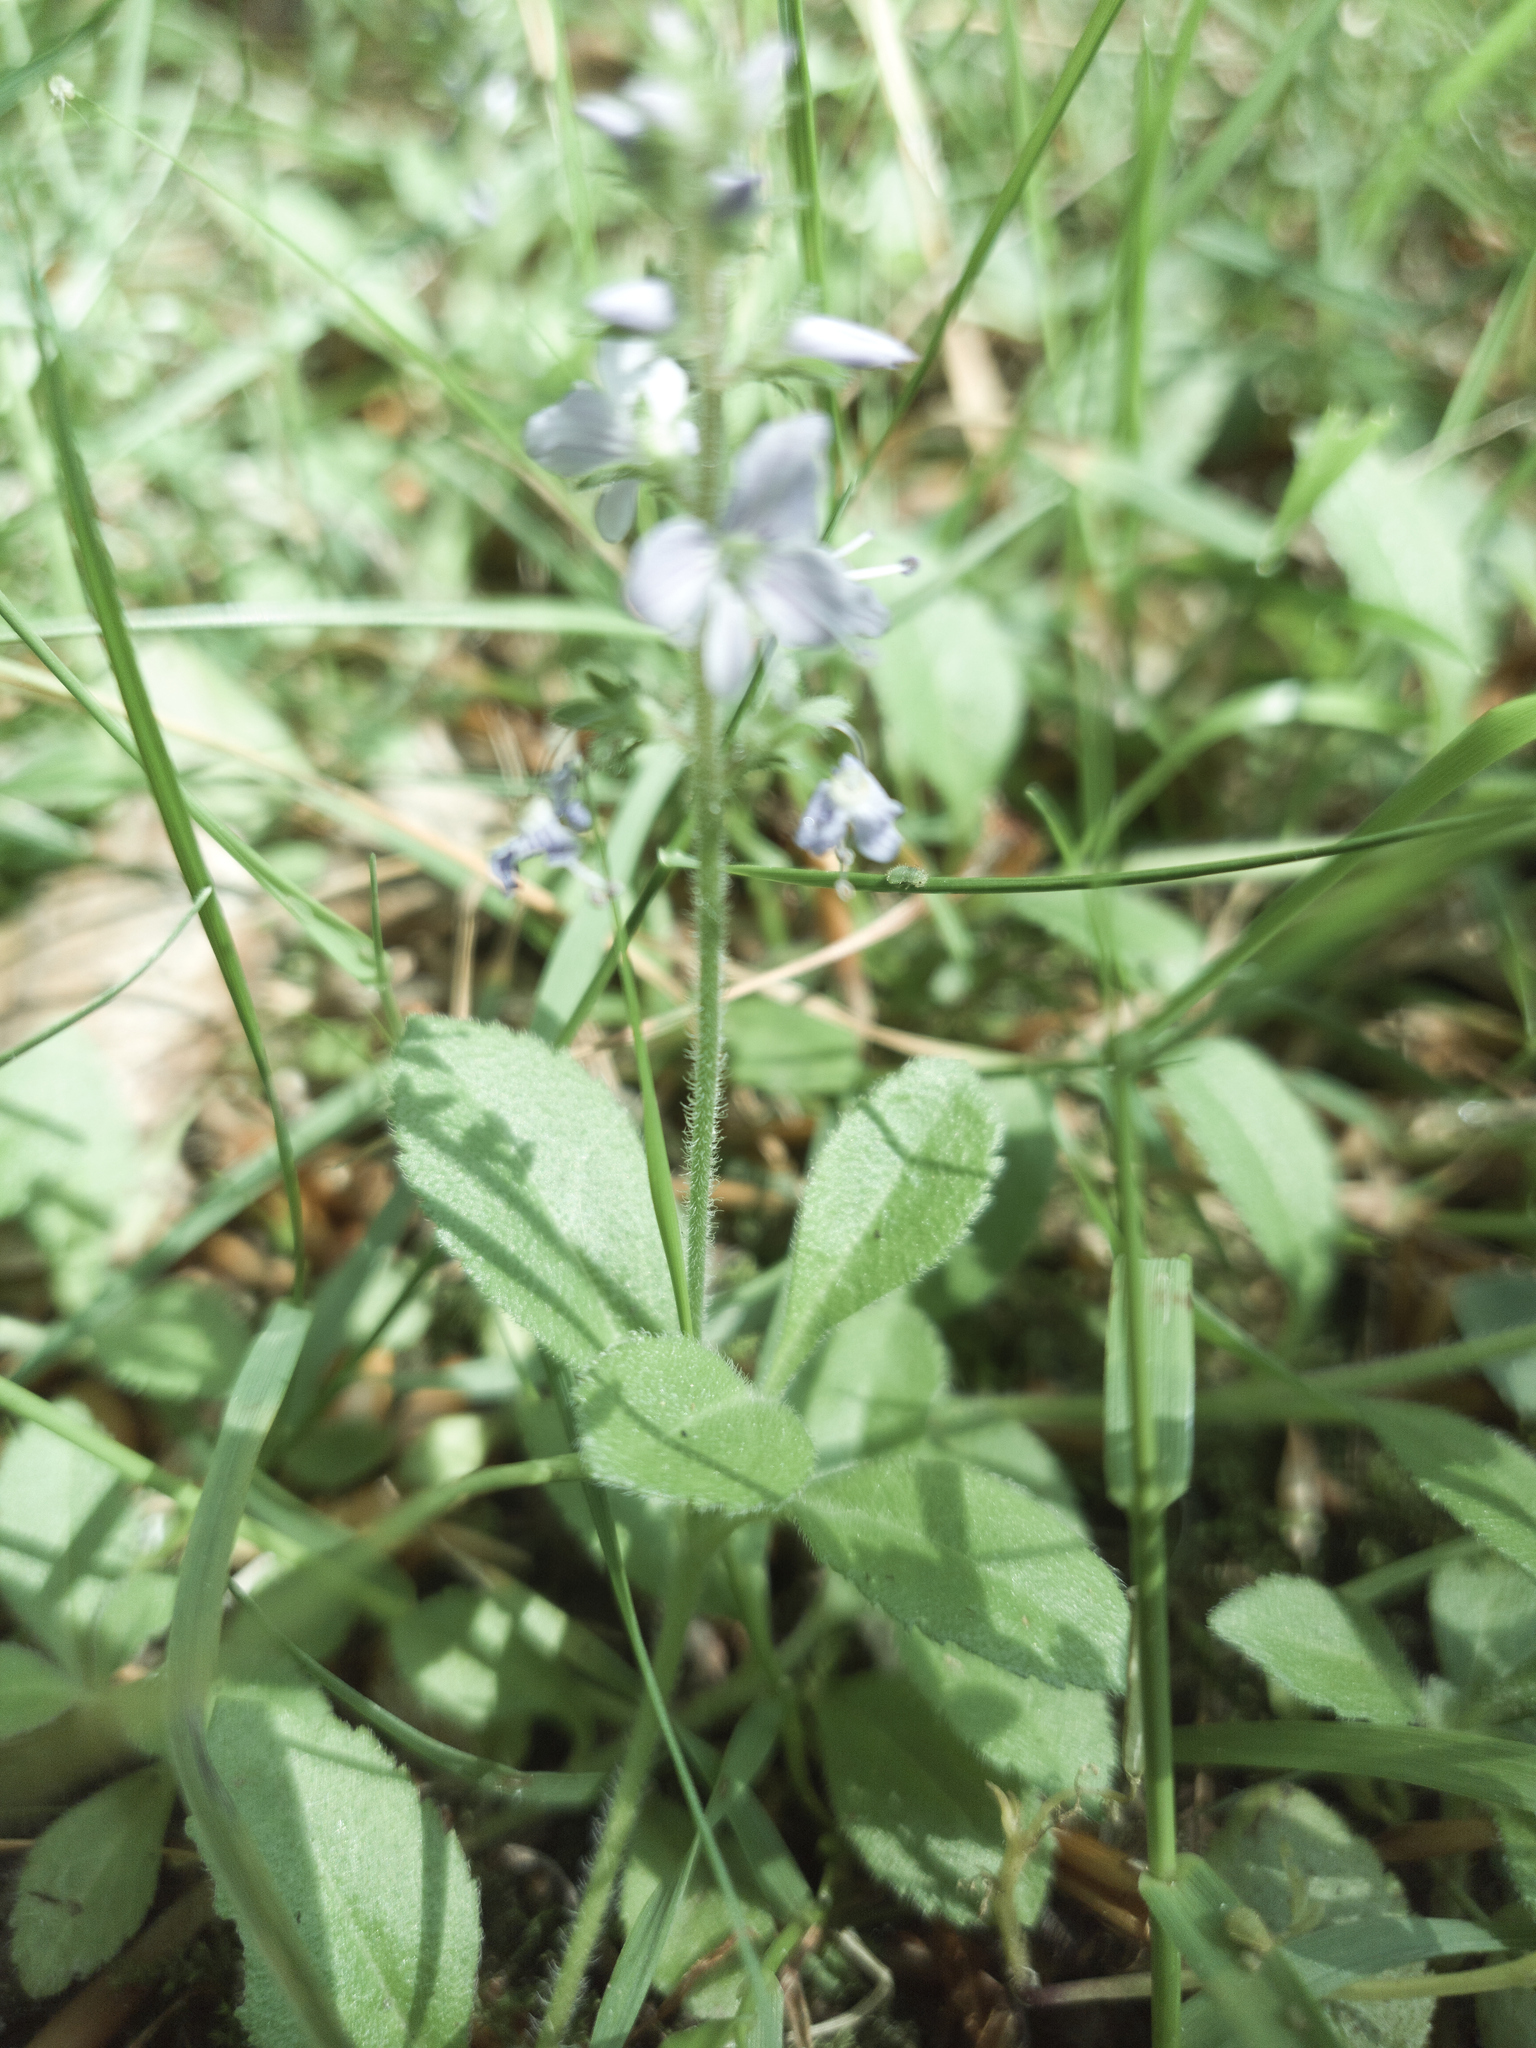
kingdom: Plantae
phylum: Tracheophyta
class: Magnoliopsida
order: Lamiales
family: Plantaginaceae
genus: Veronica
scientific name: Veronica officinalis
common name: Common speedwell
